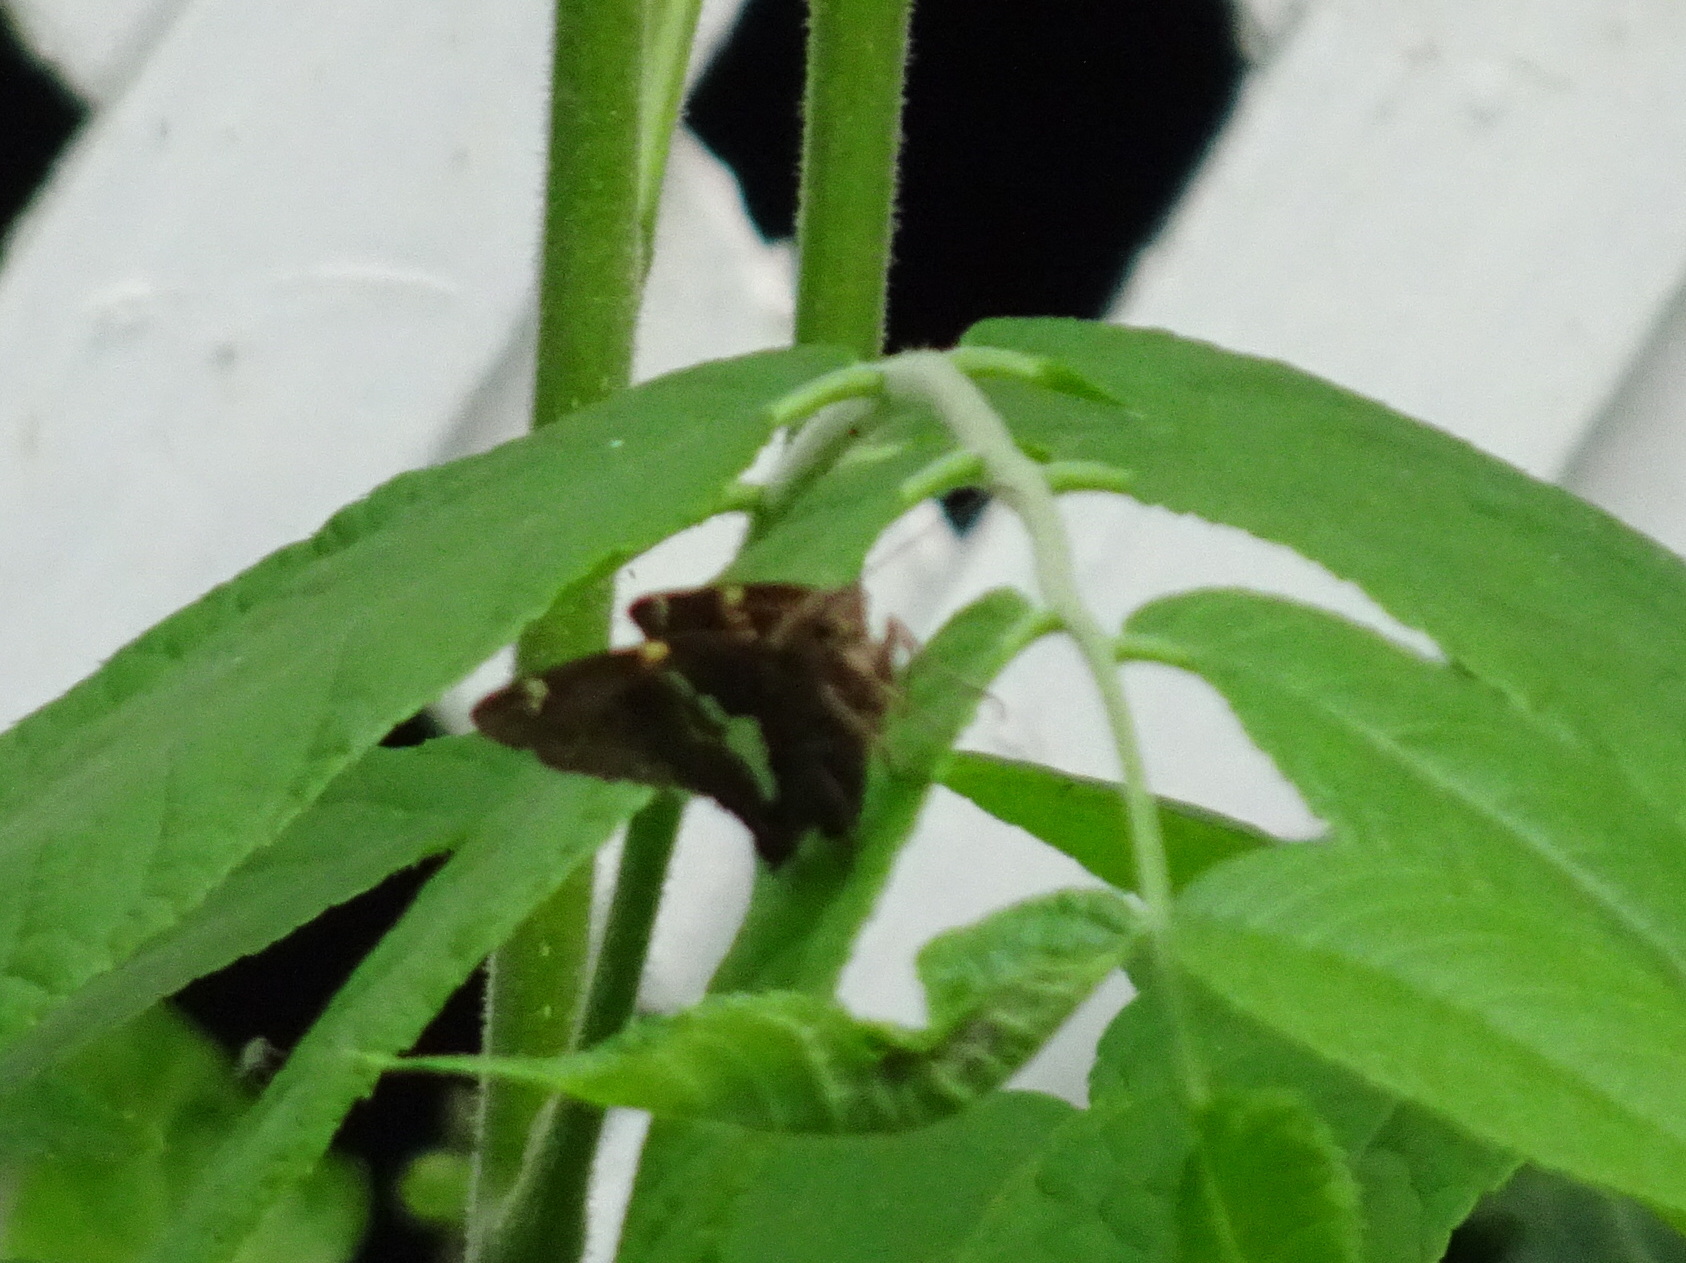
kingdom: Animalia
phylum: Arthropoda
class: Insecta
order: Lepidoptera
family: Hesperiidae
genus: Epargyreus
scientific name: Epargyreus clarus
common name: Silver-spotted skipper
